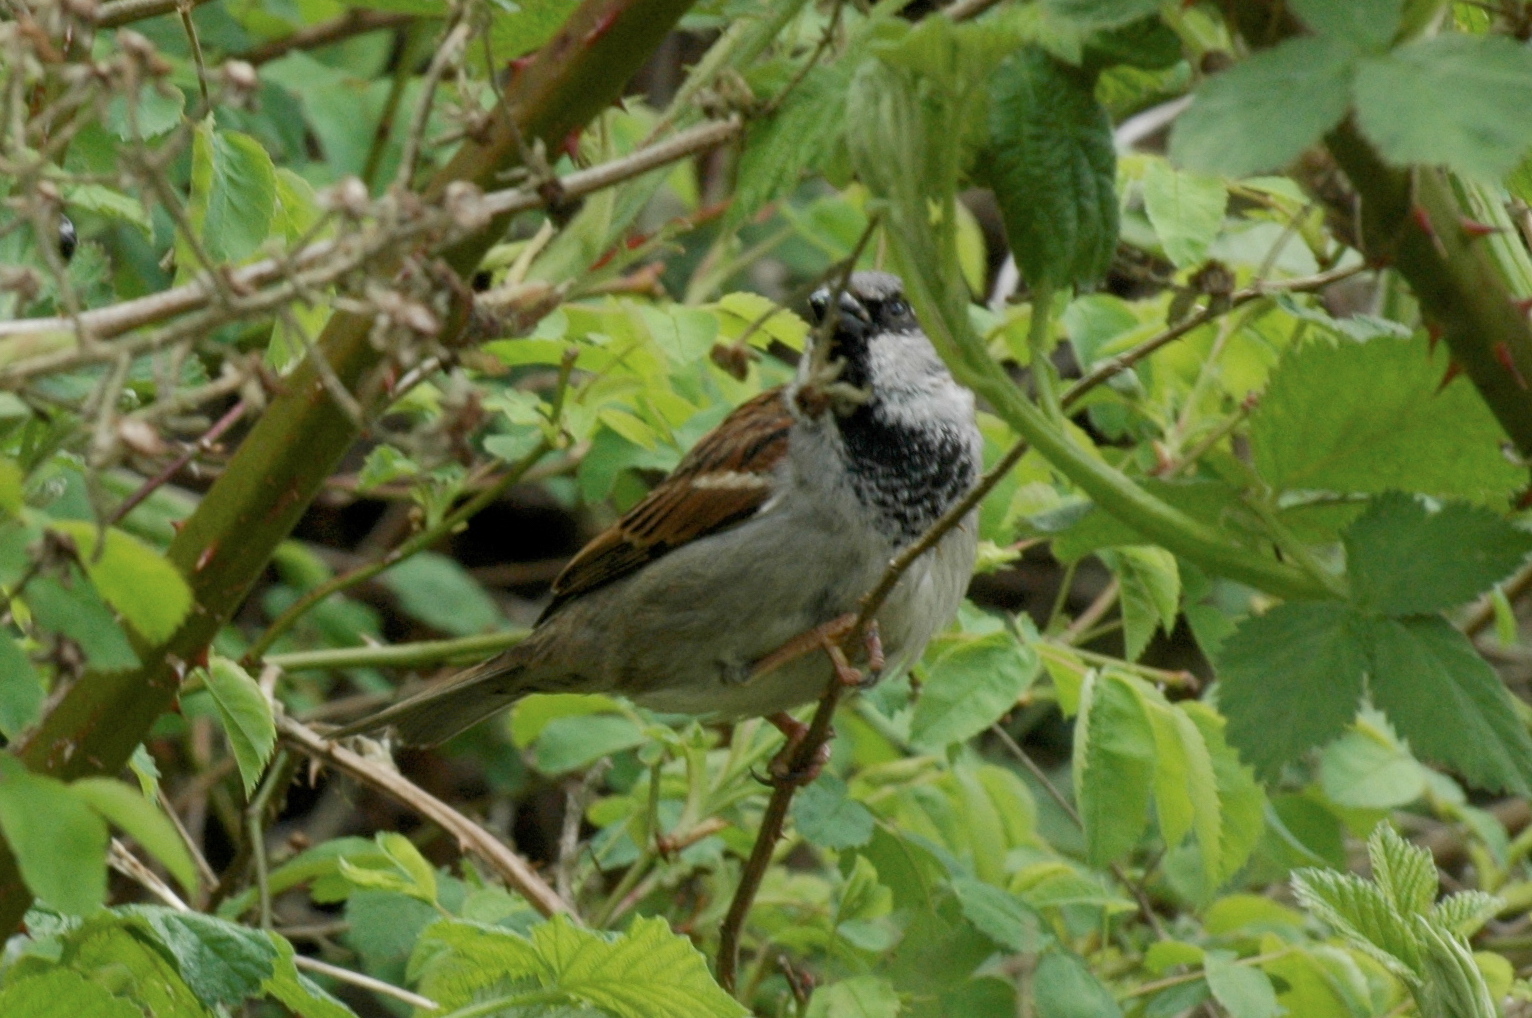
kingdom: Animalia
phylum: Chordata
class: Aves
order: Passeriformes
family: Passeridae
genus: Passer
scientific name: Passer domesticus
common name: House sparrow
